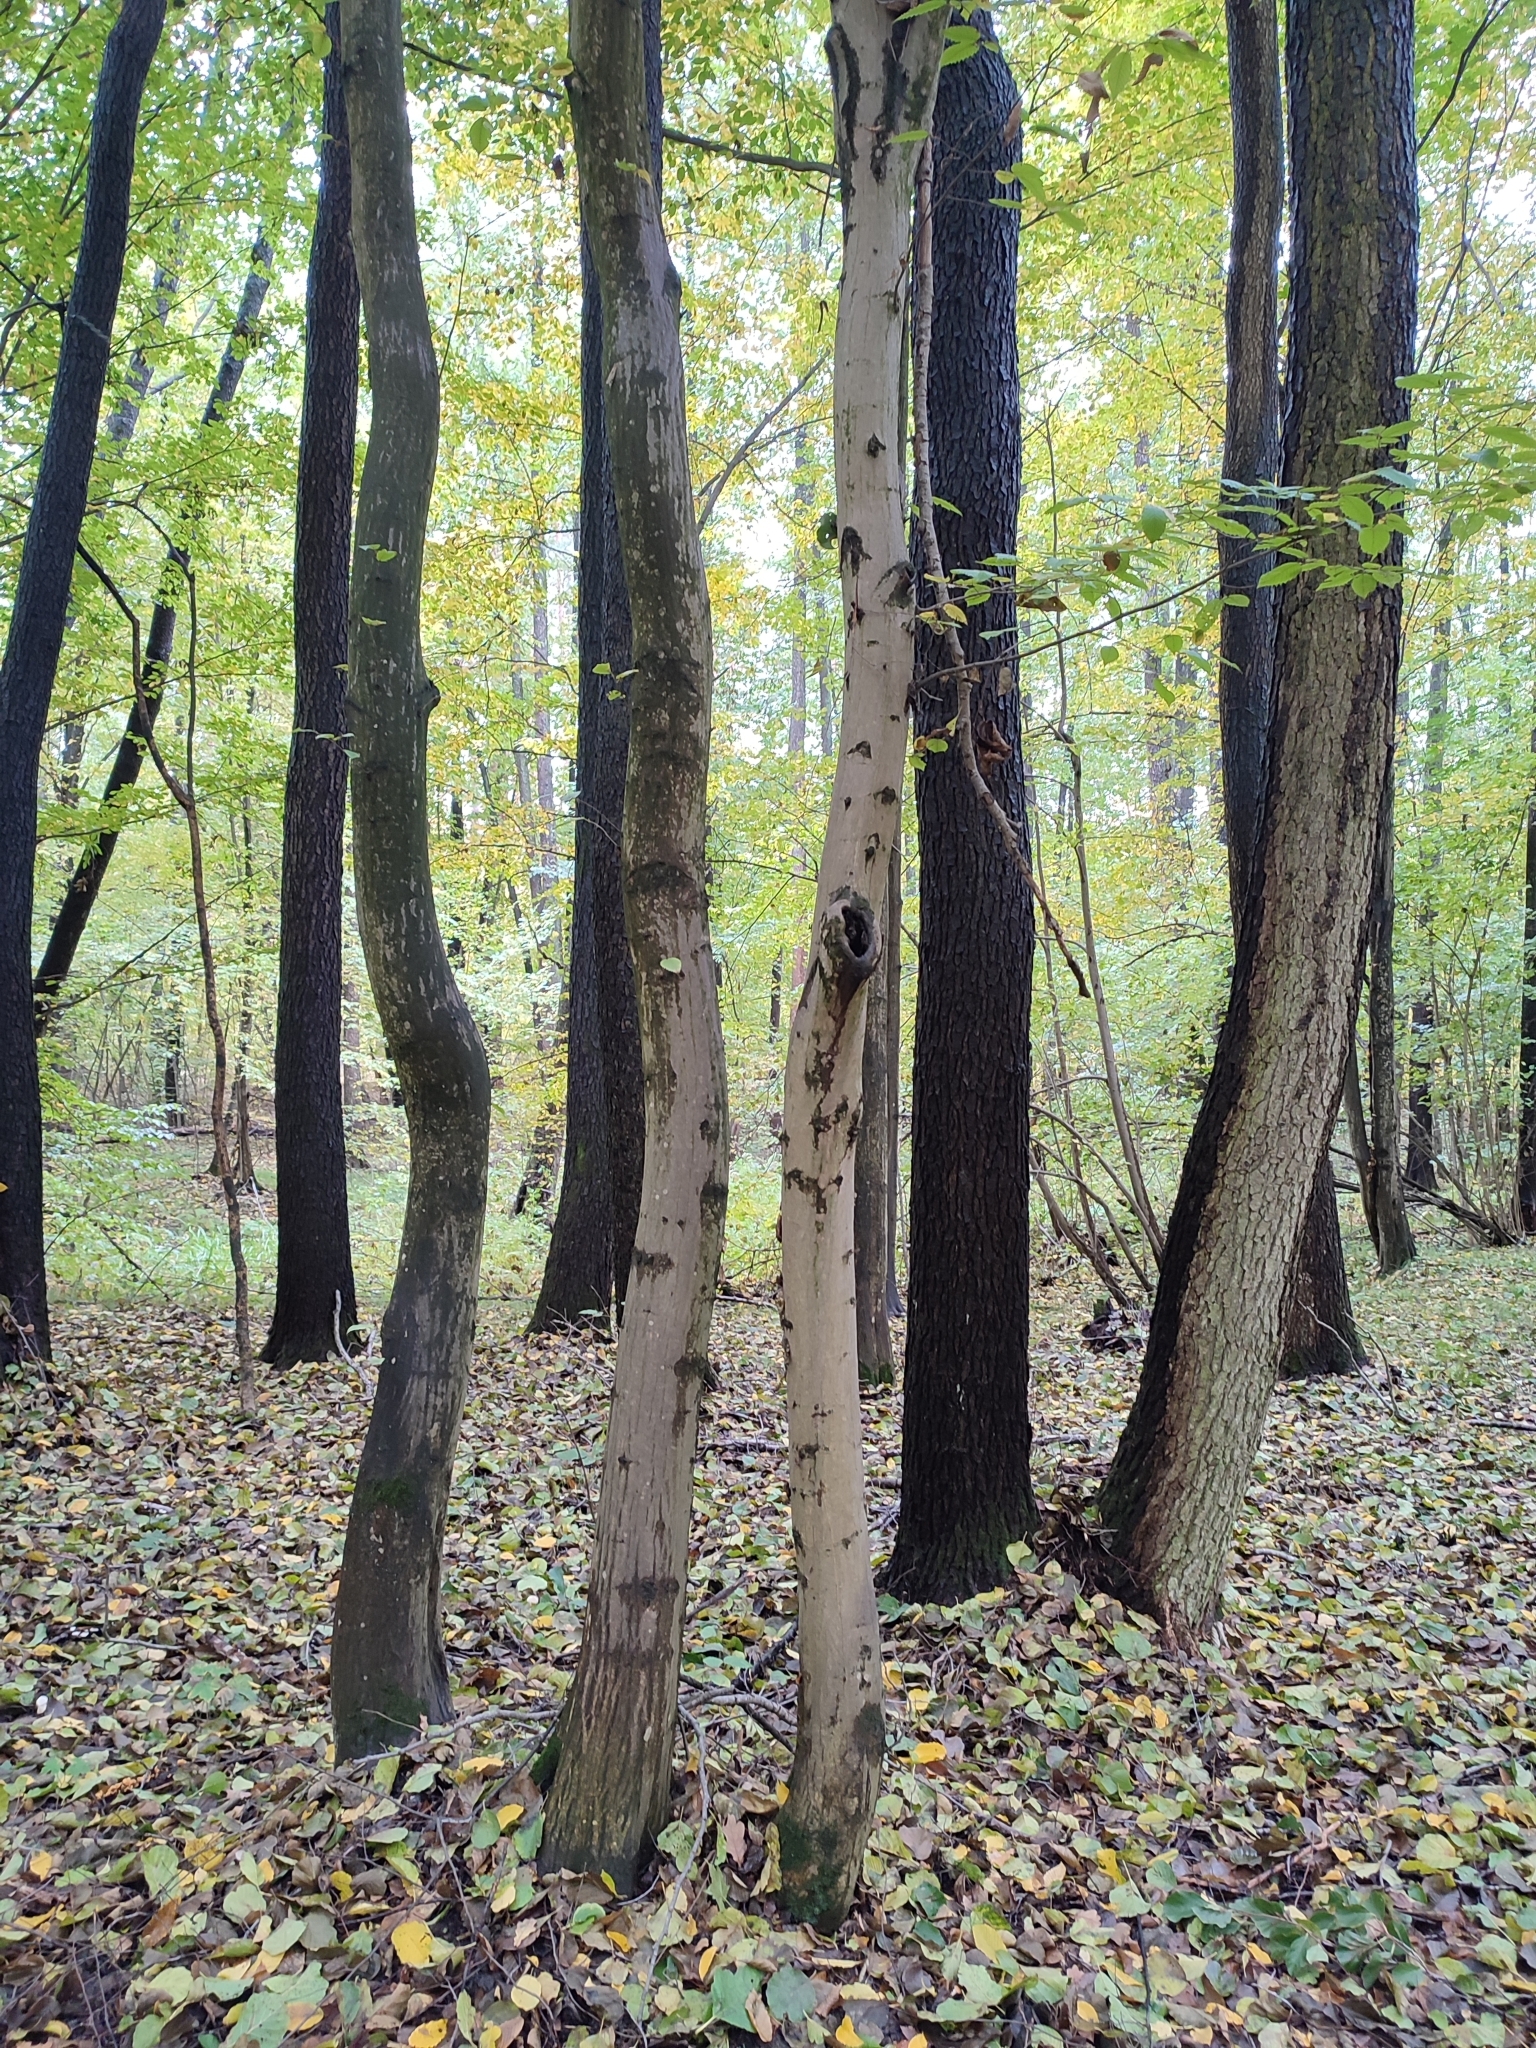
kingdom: Plantae
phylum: Tracheophyta
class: Magnoliopsida
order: Fagales
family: Betulaceae
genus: Carpinus
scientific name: Carpinus betulus
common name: Hornbeam
